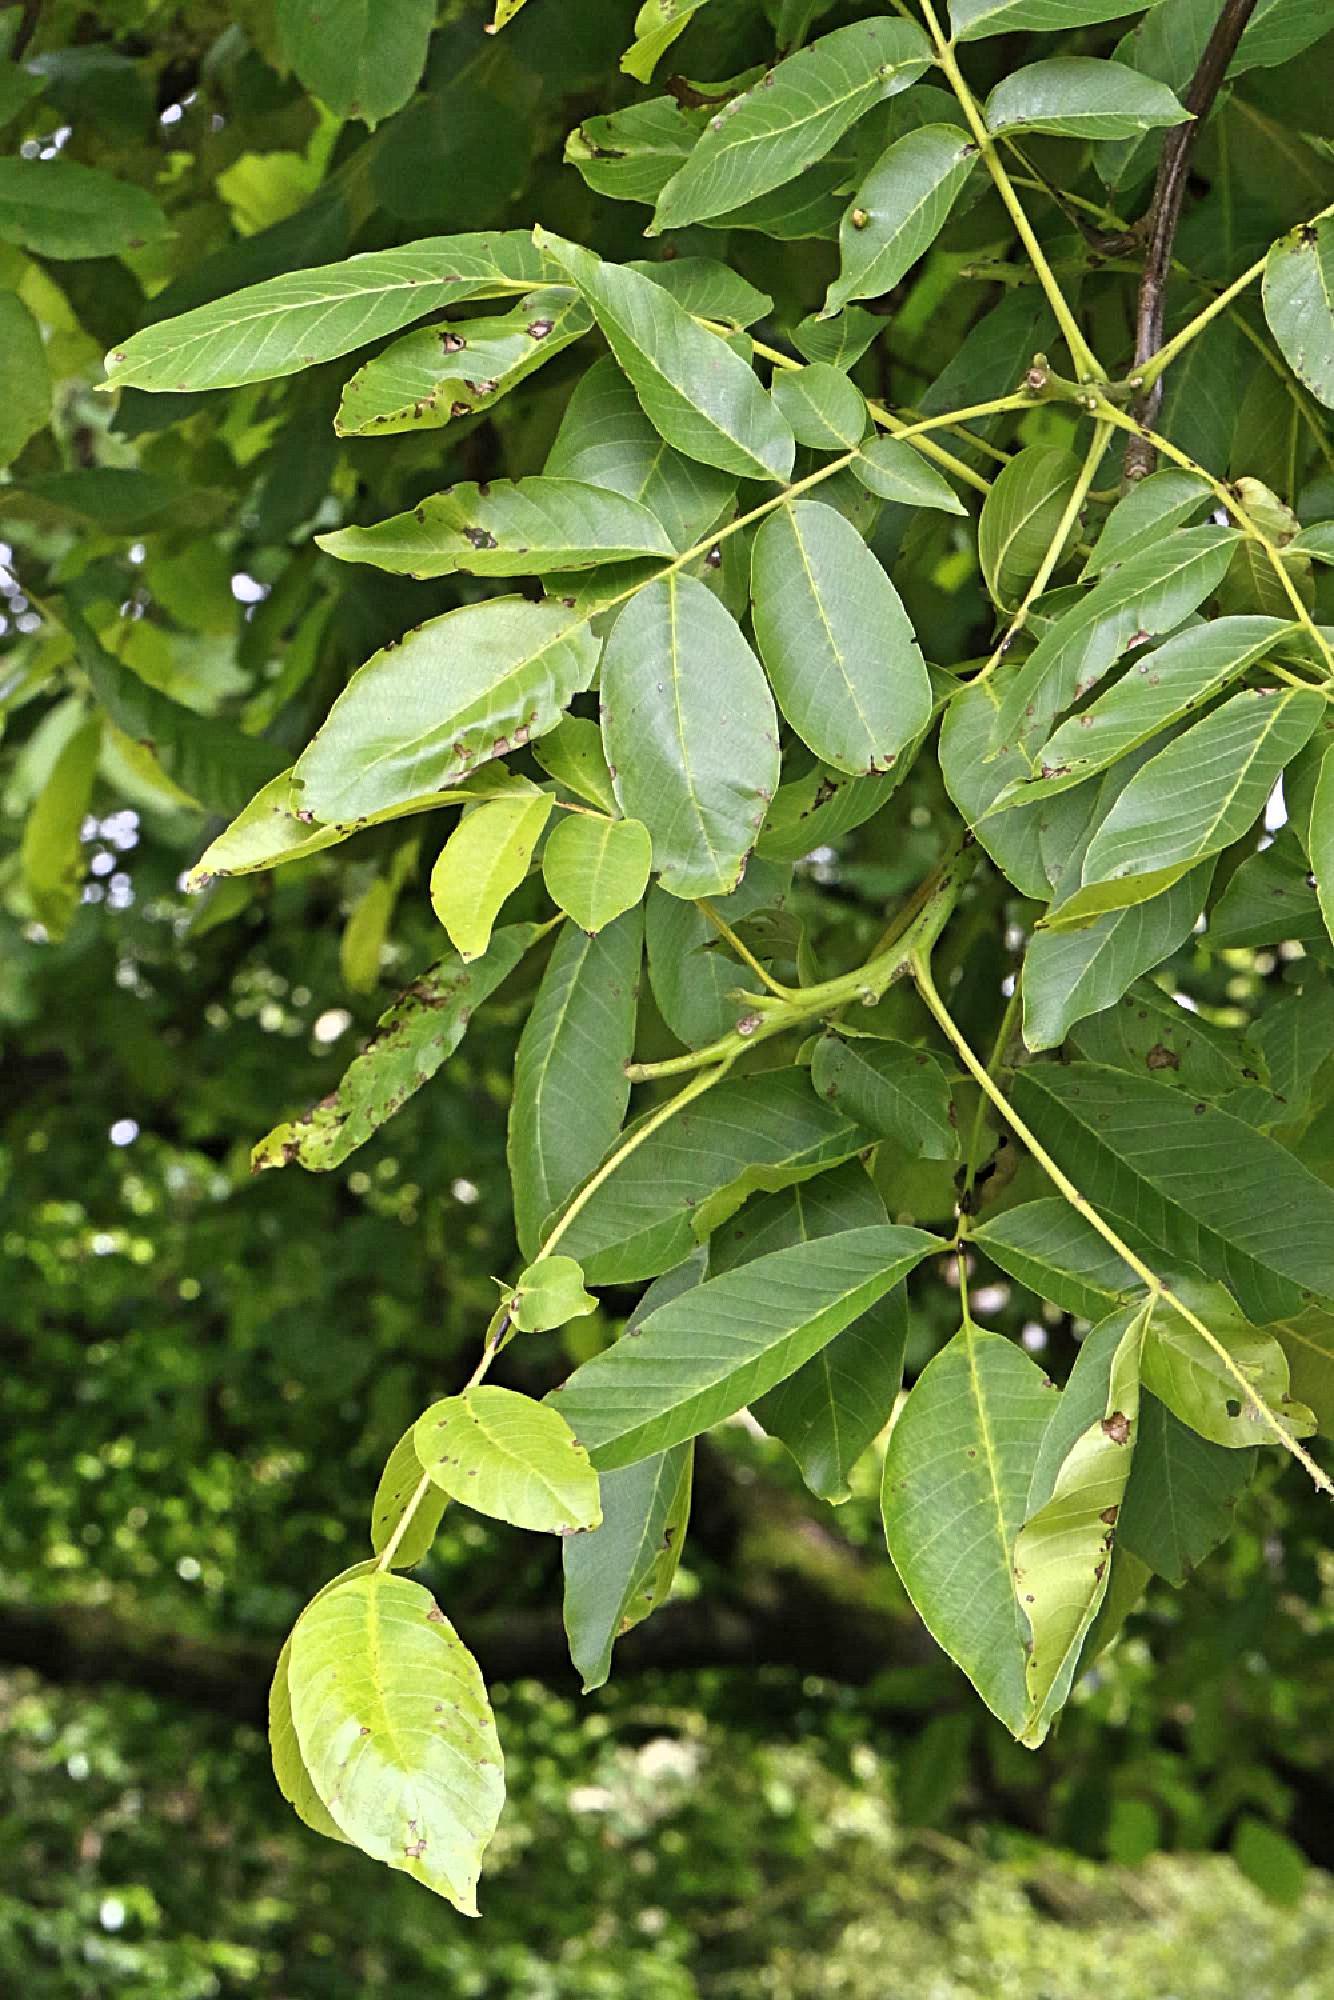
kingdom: Plantae
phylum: Tracheophyta
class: Magnoliopsida
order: Fagales
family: Juglandaceae
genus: Juglans
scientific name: Juglans regia
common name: Walnut
